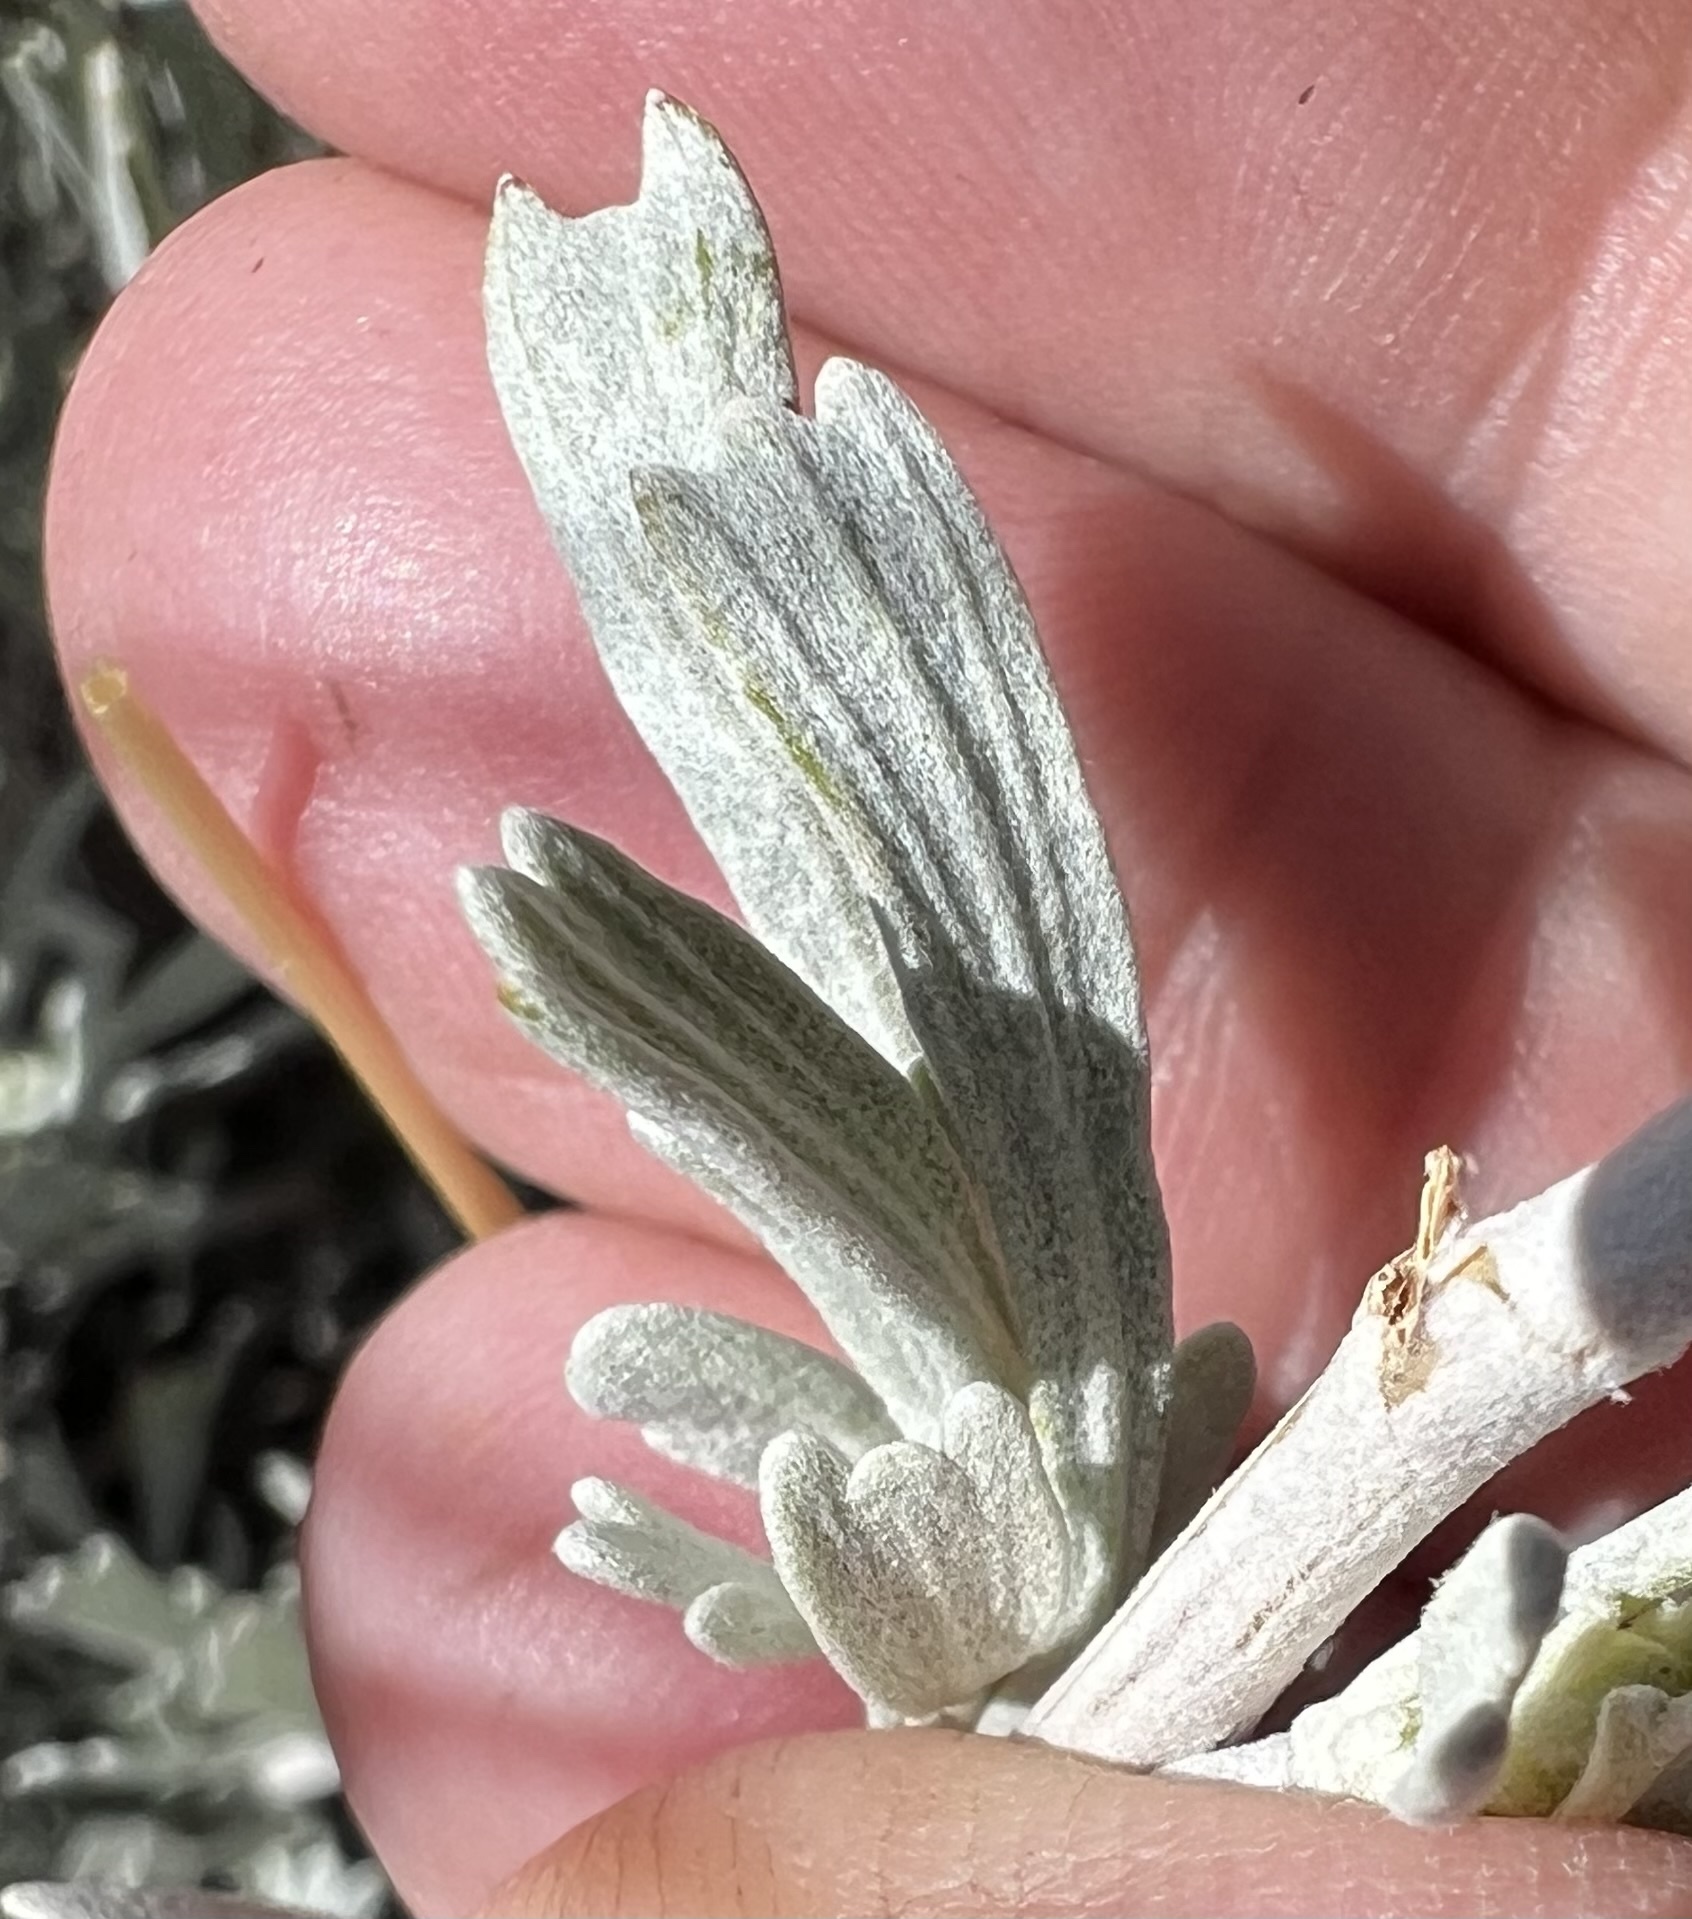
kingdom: Plantae
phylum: Tracheophyta
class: Magnoliopsida
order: Asterales
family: Asteraceae
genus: Artemisia
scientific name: Artemisia tridentata
